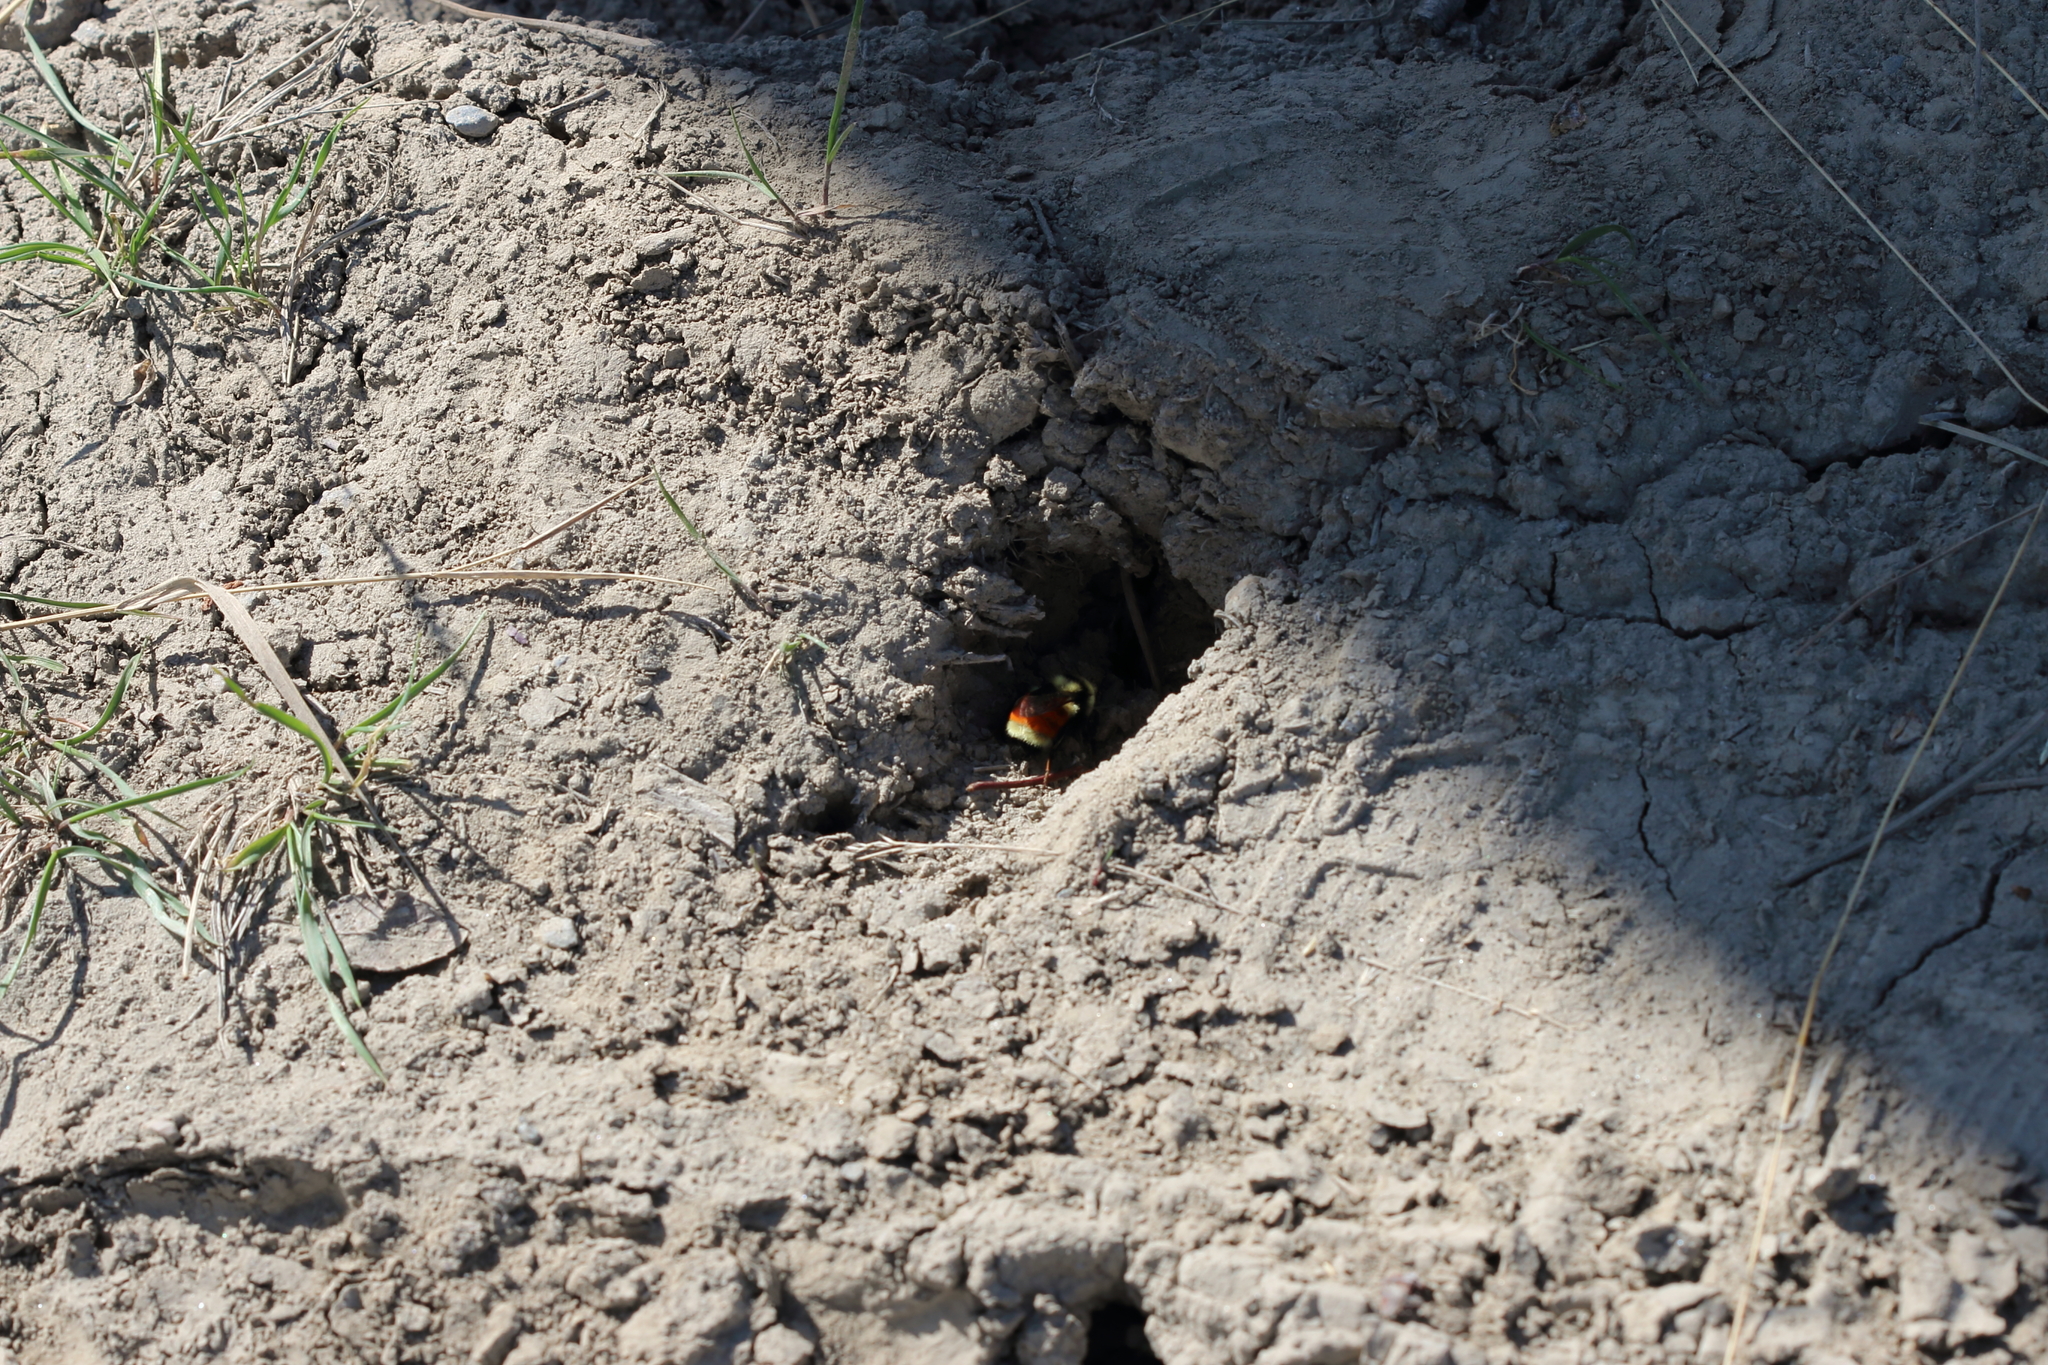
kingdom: Animalia
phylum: Arthropoda
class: Insecta
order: Hymenoptera
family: Apidae
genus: Bombus
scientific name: Bombus huntii
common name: Hunt bumble bee
